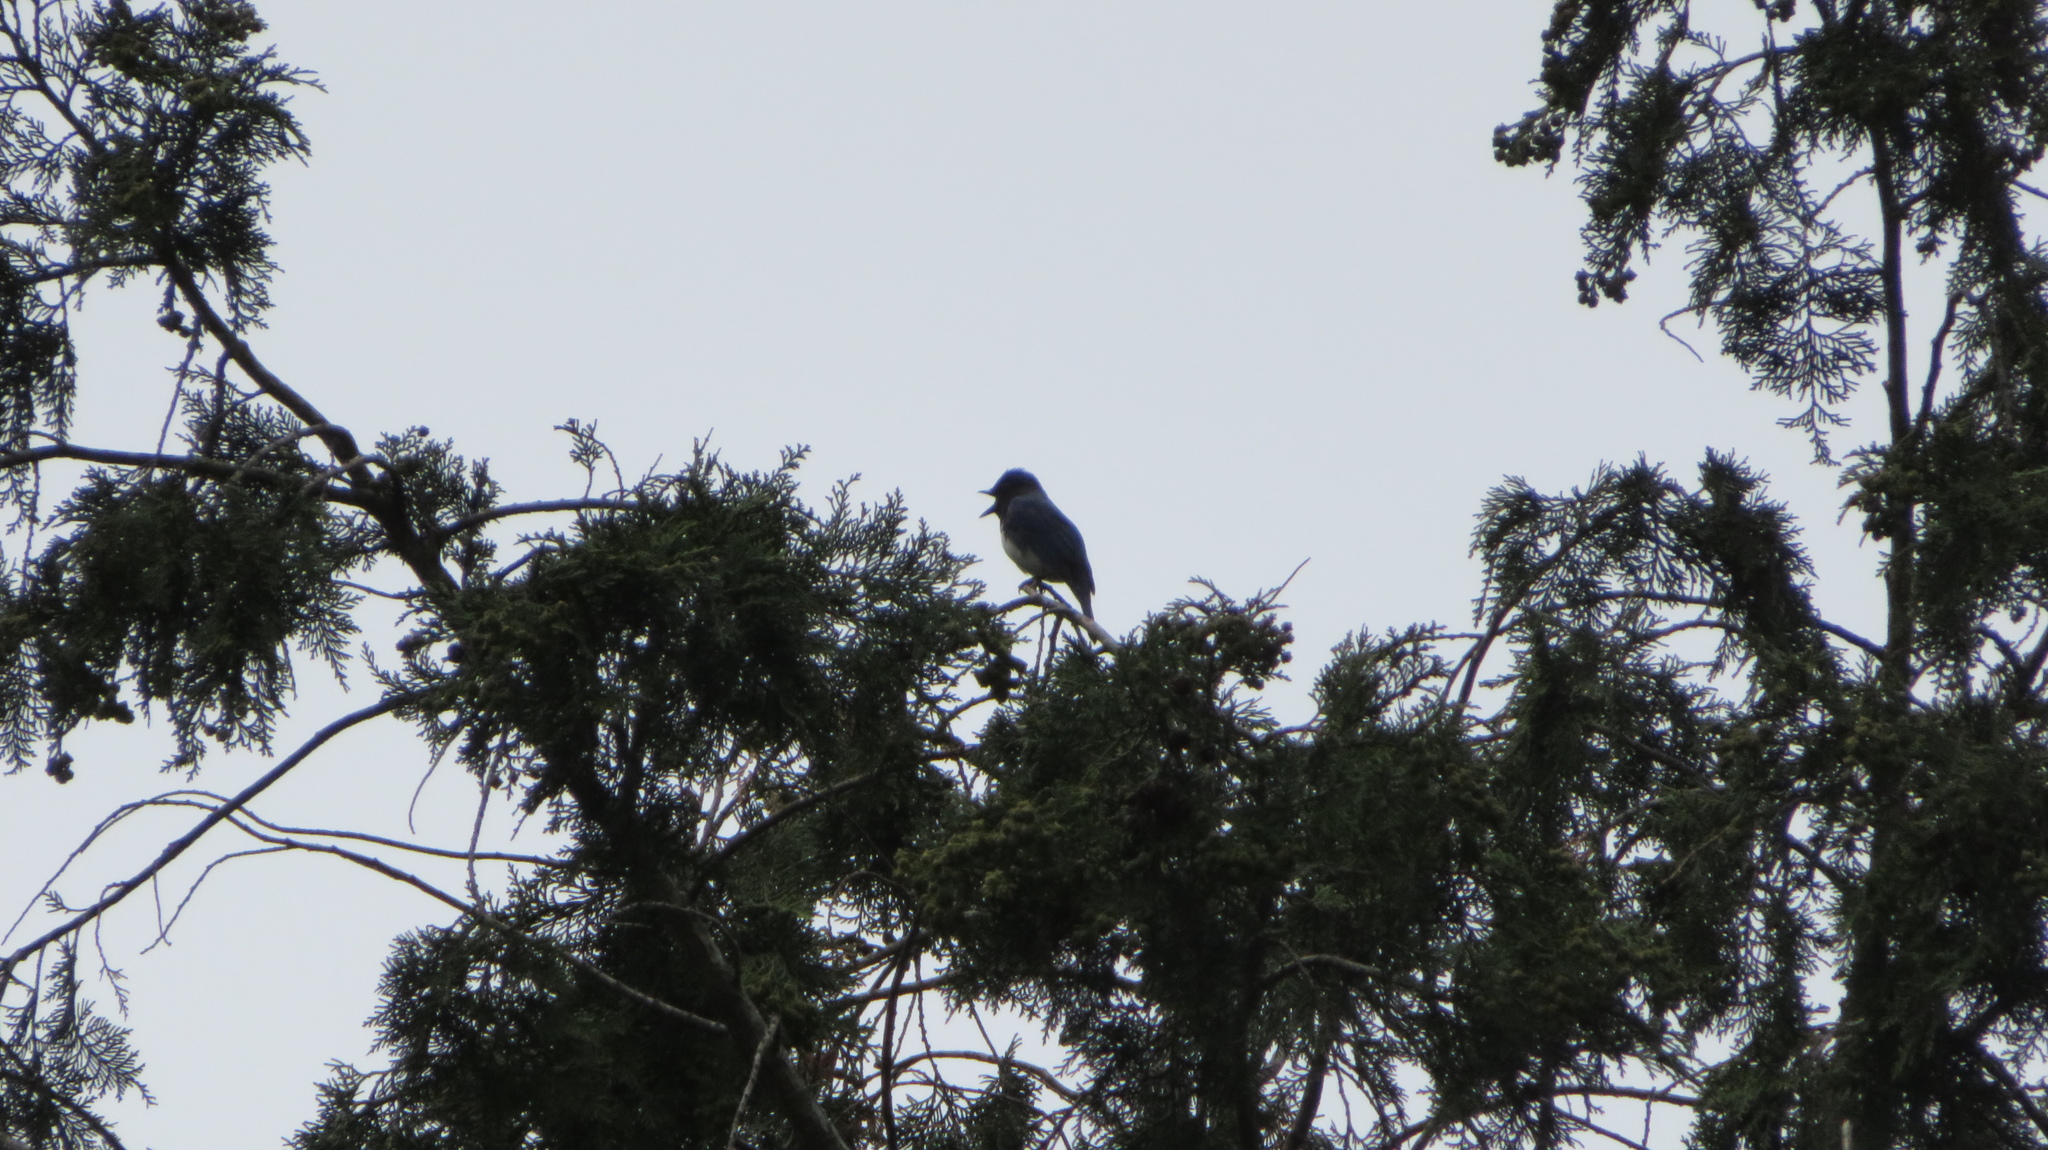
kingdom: Animalia
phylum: Chordata
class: Aves
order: Passeriformes
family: Muscicapidae
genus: Cyanoptila
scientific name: Cyanoptila cyanomelana
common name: Blue-and-white flycatcher
